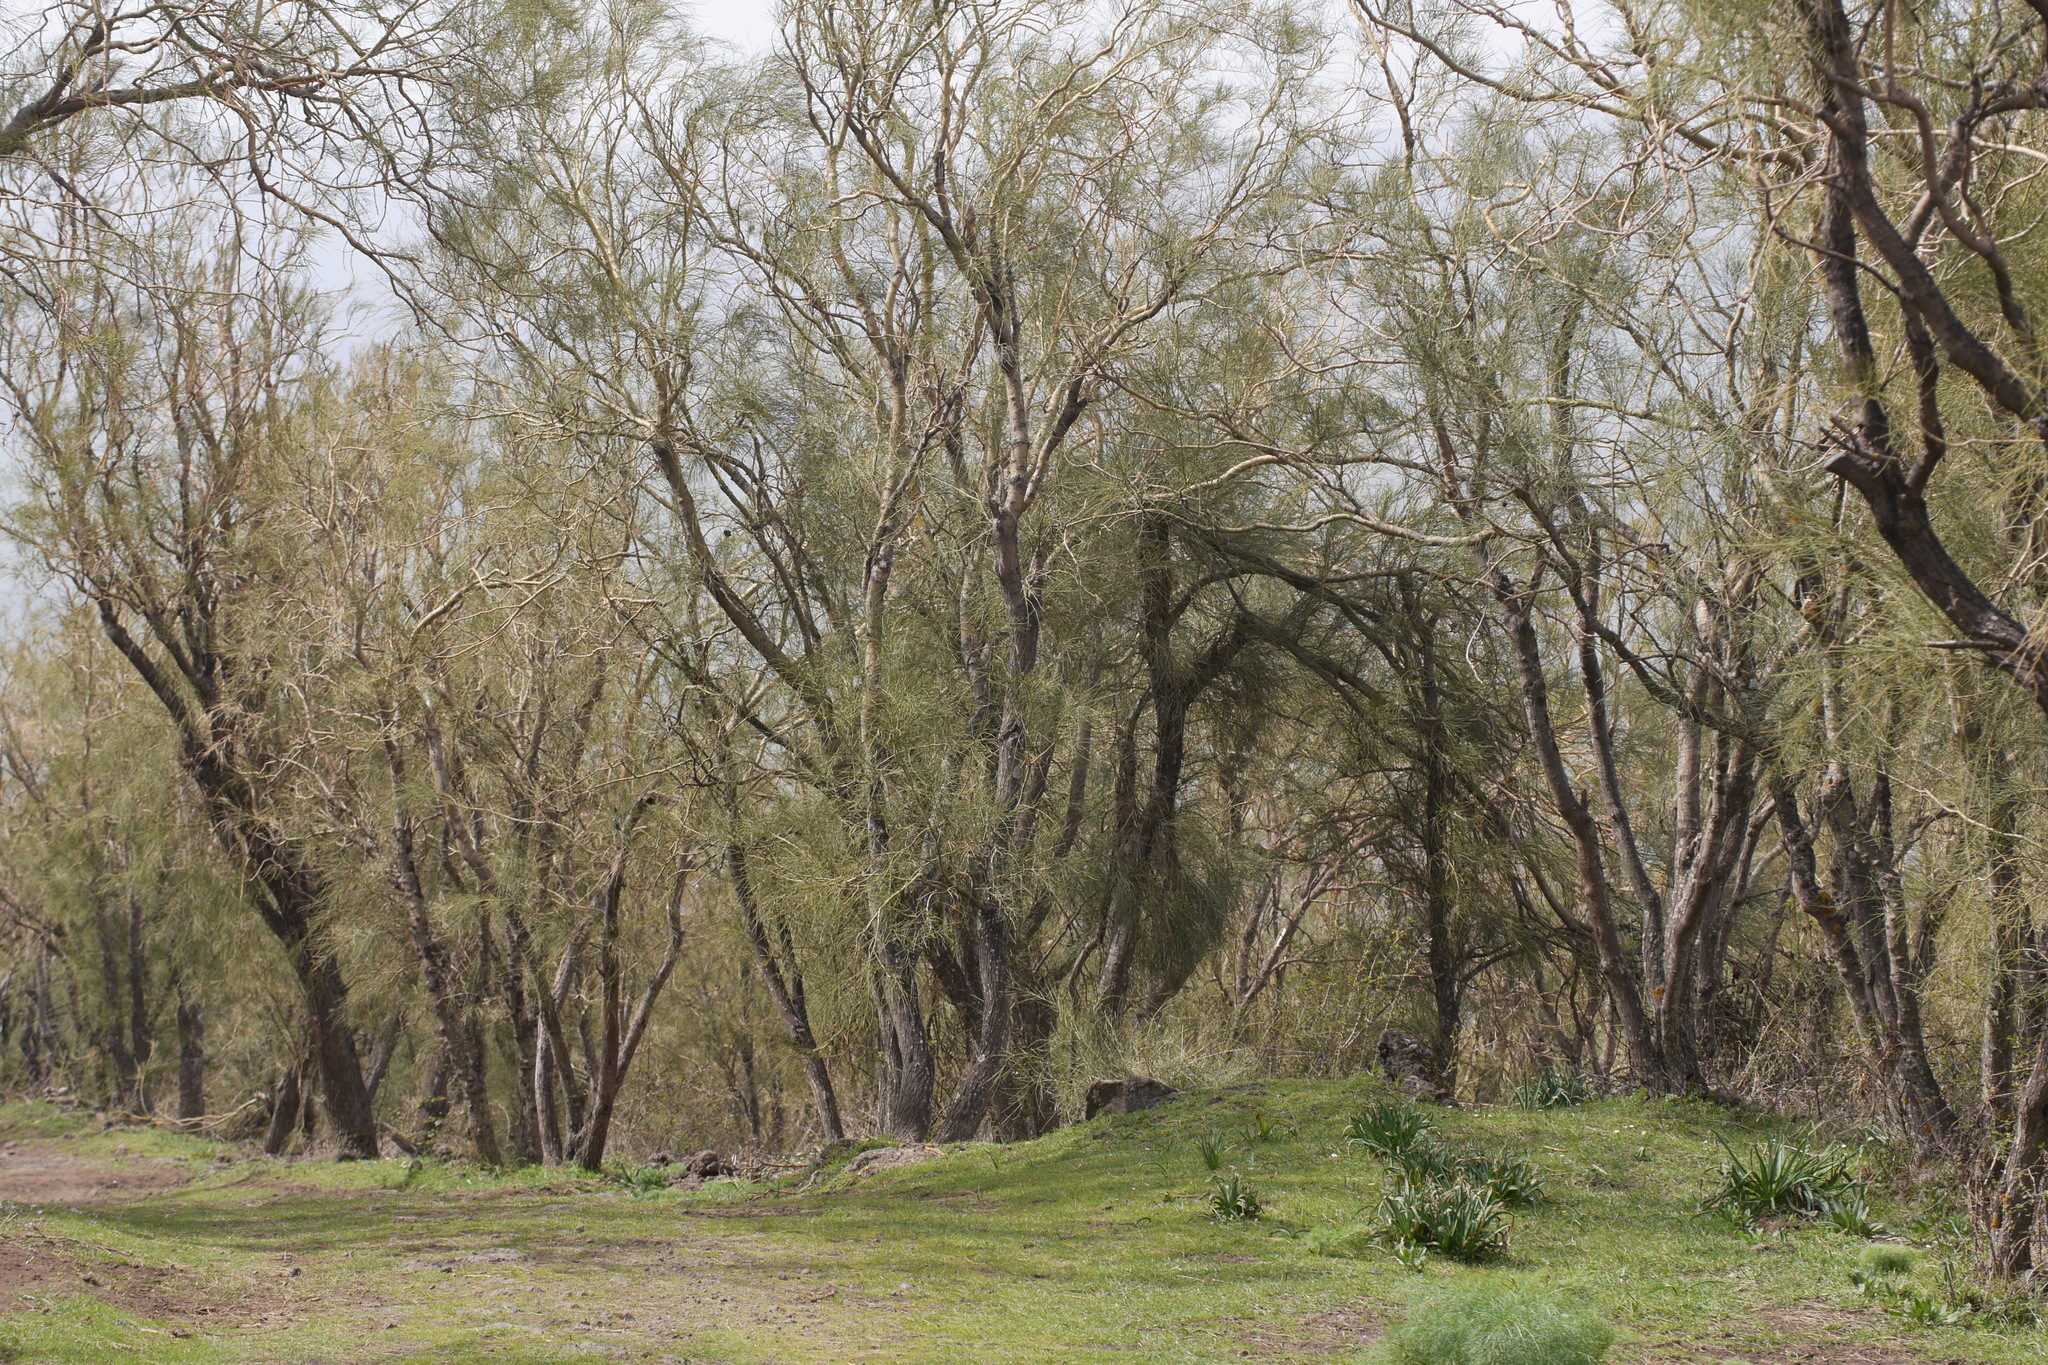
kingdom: Plantae
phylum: Tracheophyta
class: Magnoliopsida
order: Fabales
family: Fabaceae
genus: Genista
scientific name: Genista aetnensis
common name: Mount etna broom
